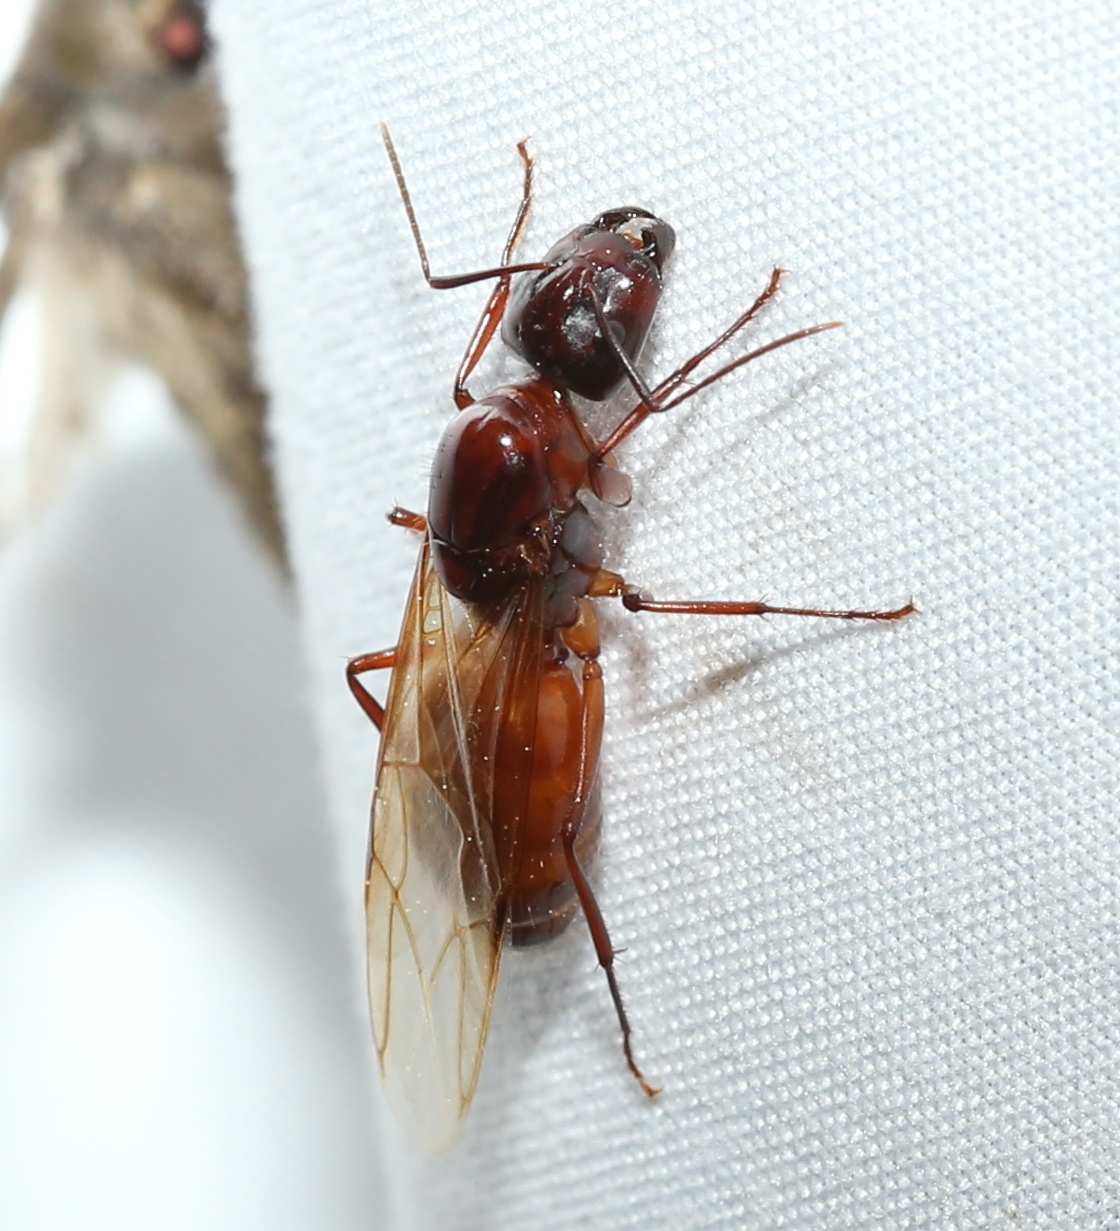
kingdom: Animalia
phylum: Arthropoda
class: Insecta
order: Hymenoptera
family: Formicidae
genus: Camponotus
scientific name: Camponotus castaneus
